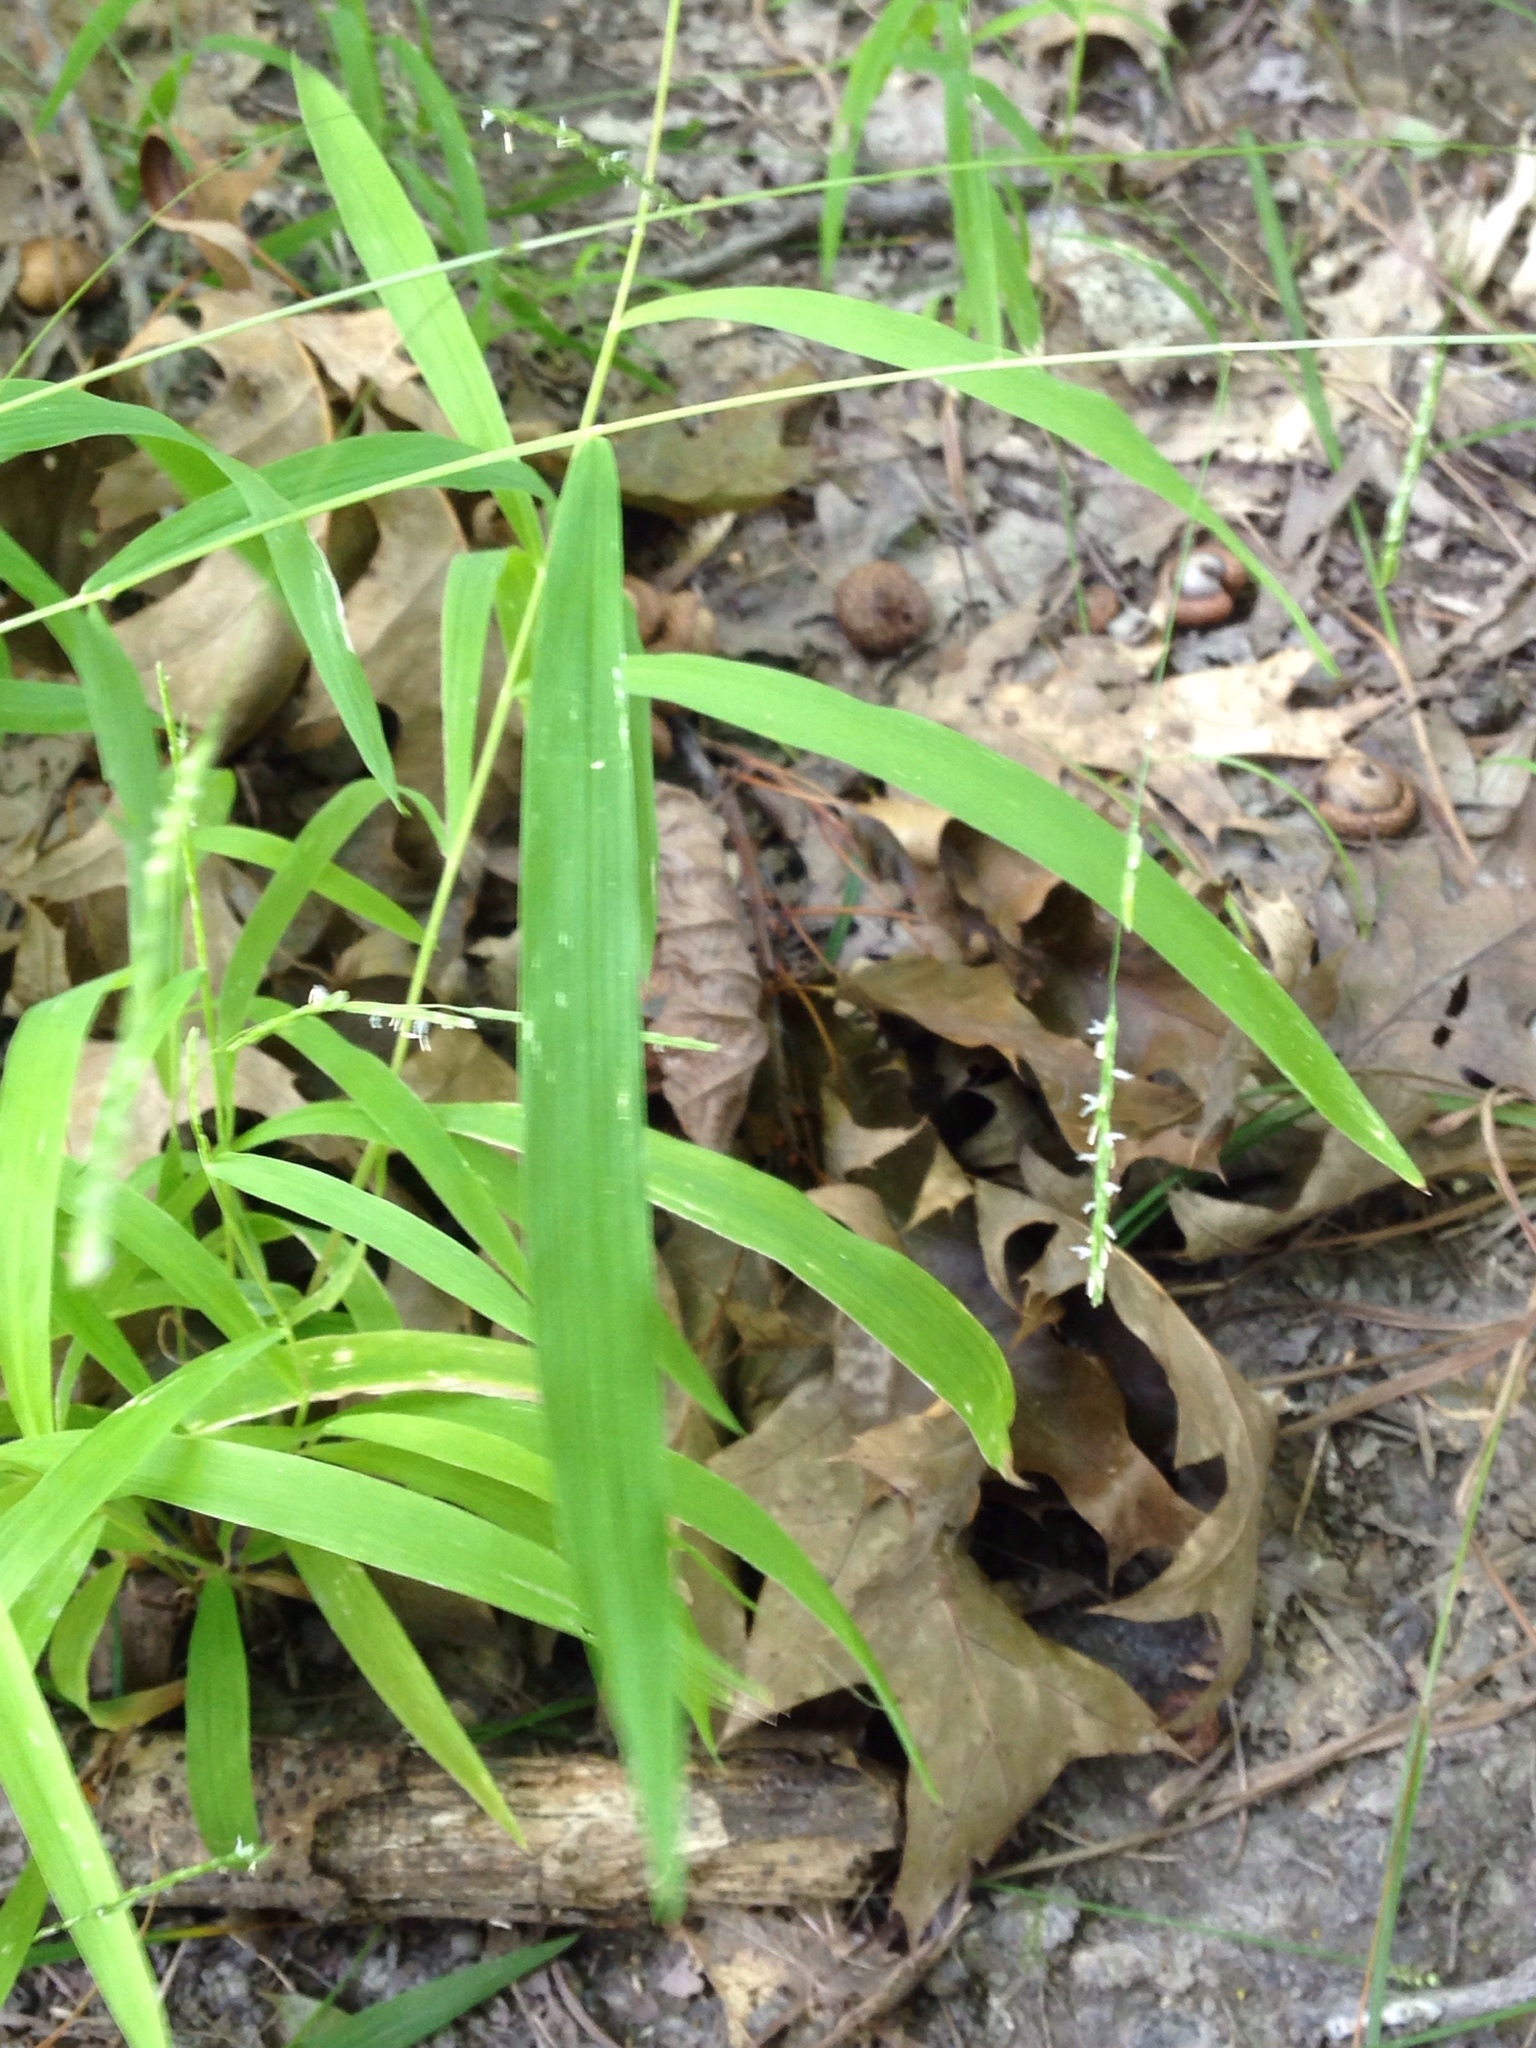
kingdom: Plantae
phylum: Tracheophyta
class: Liliopsida
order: Poales
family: Poaceae
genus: Leersia
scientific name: Leersia virginica
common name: White cutgrass
